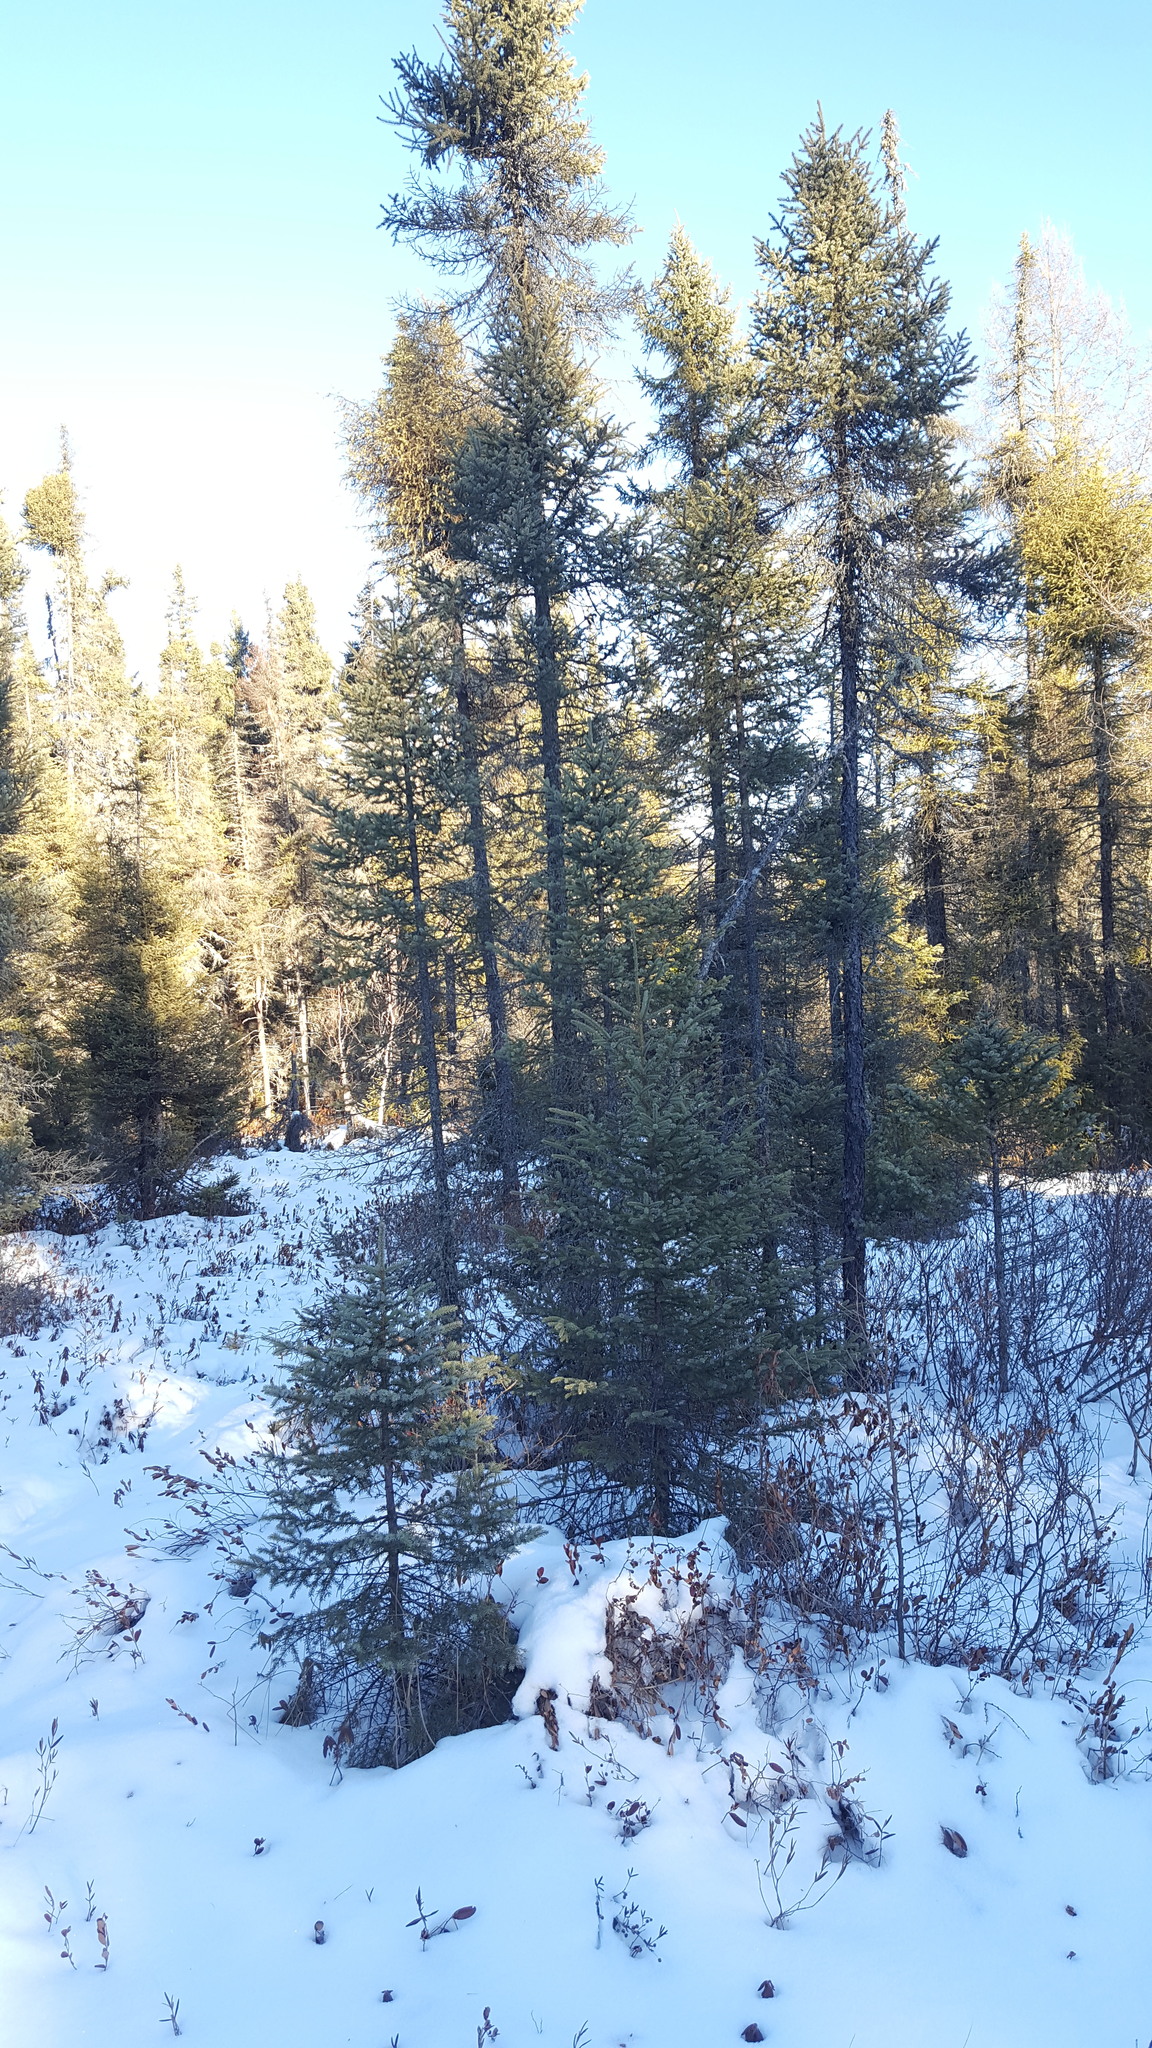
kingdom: Plantae
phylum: Tracheophyta
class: Pinopsida
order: Pinales
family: Pinaceae
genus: Picea
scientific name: Picea mariana
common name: Black spruce
